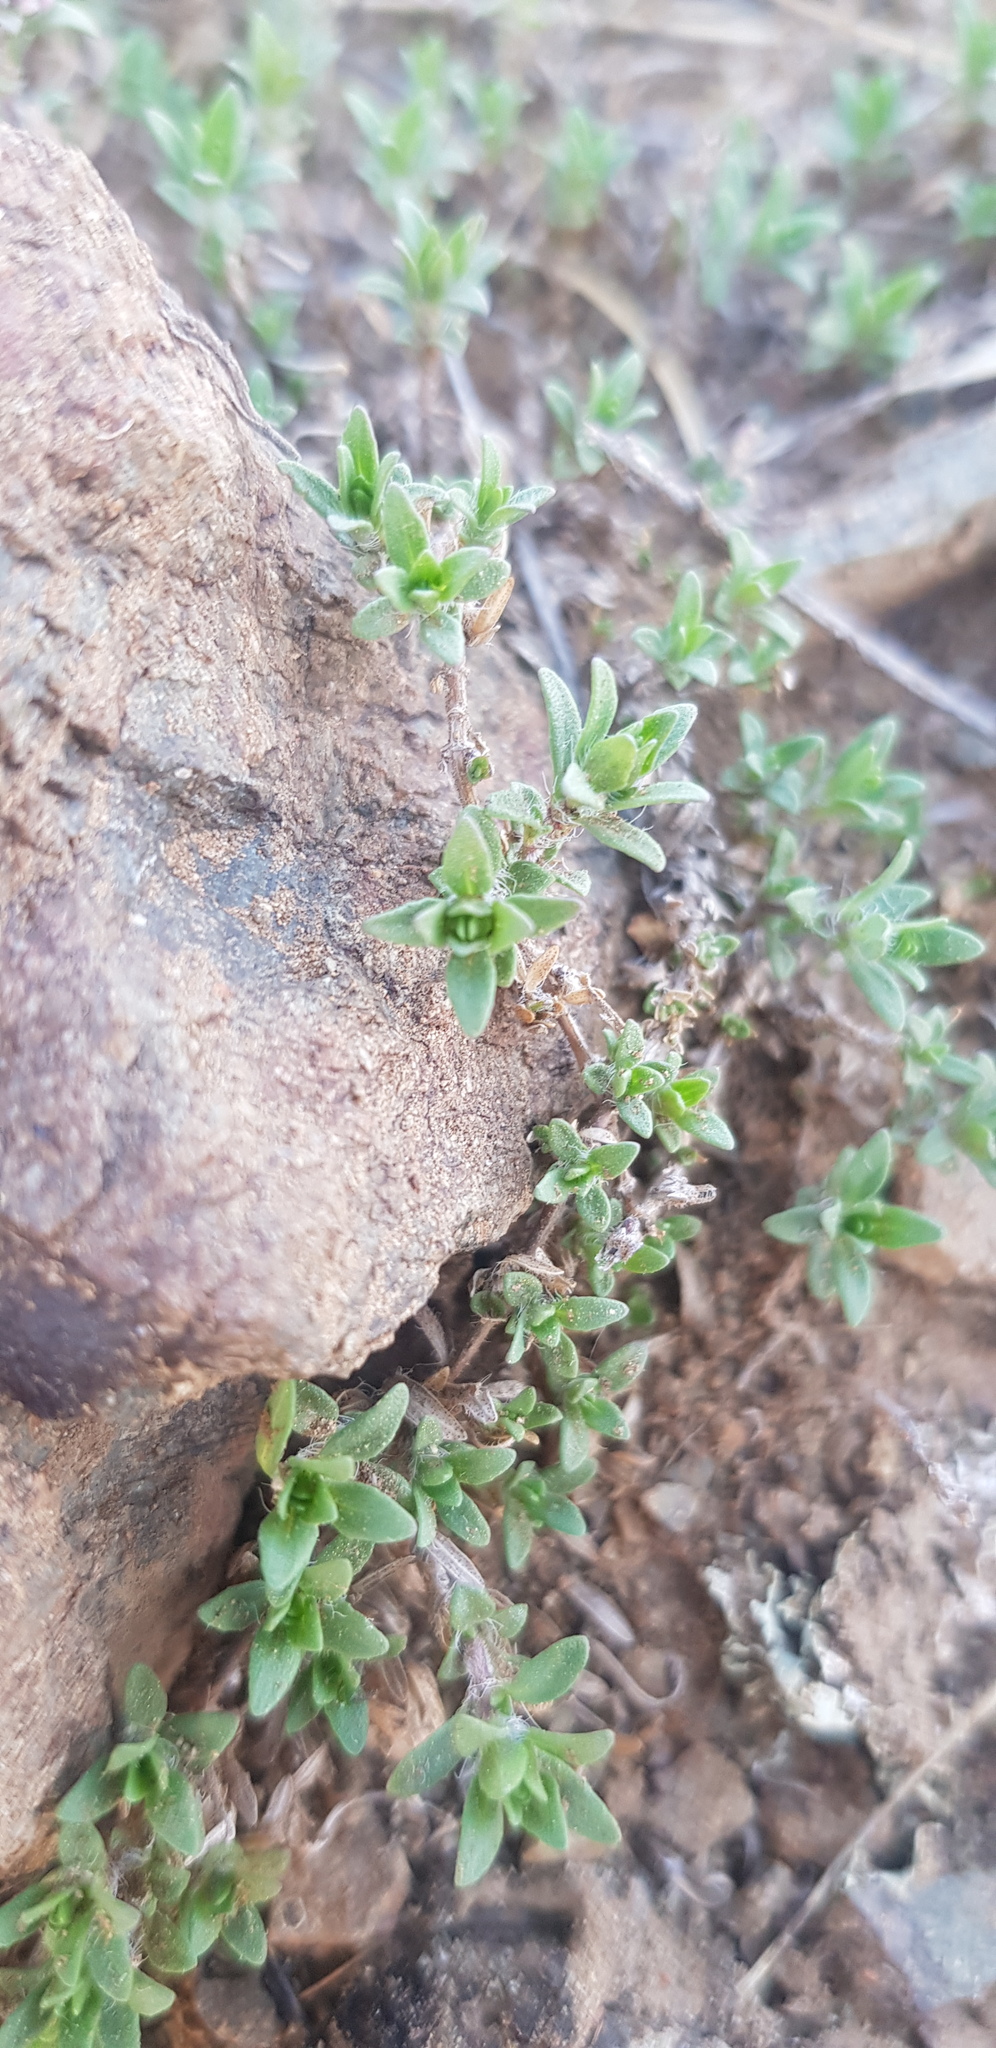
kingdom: Plantae
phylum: Tracheophyta
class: Magnoliopsida
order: Lamiales
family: Lamiaceae
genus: Thymus
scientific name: Thymus baicalensis
